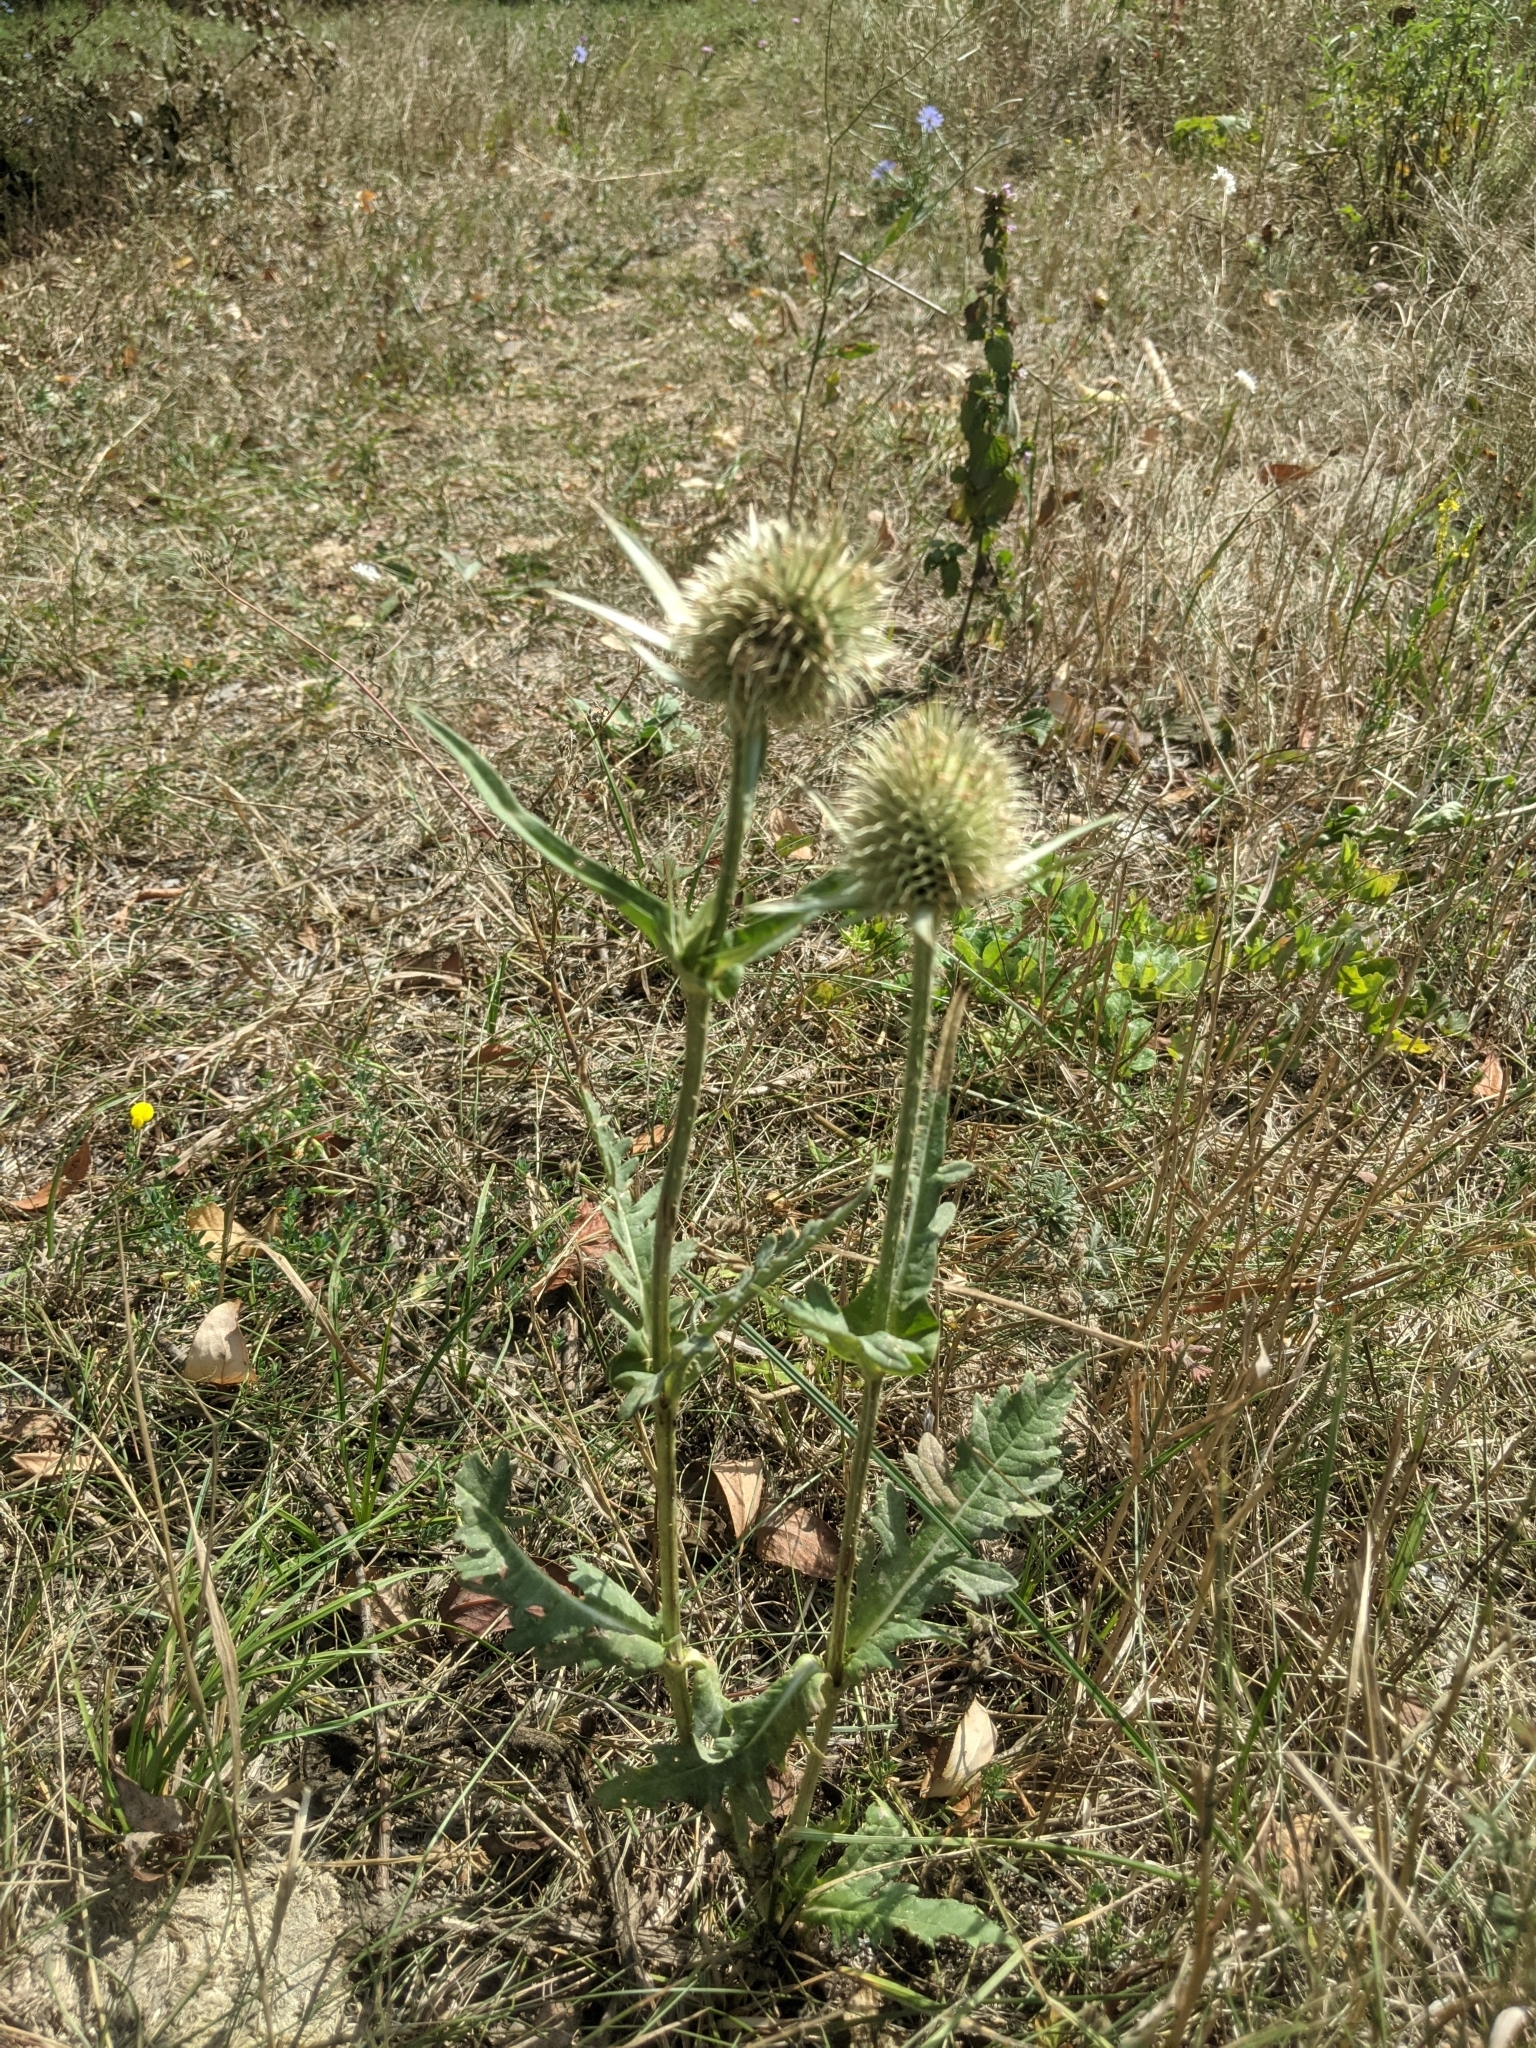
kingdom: Plantae
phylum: Tracheophyta
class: Magnoliopsida
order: Dipsacales
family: Caprifoliaceae
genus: Dipsacus
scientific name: Dipsacus laciniatus
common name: Cut-leaved teasel
